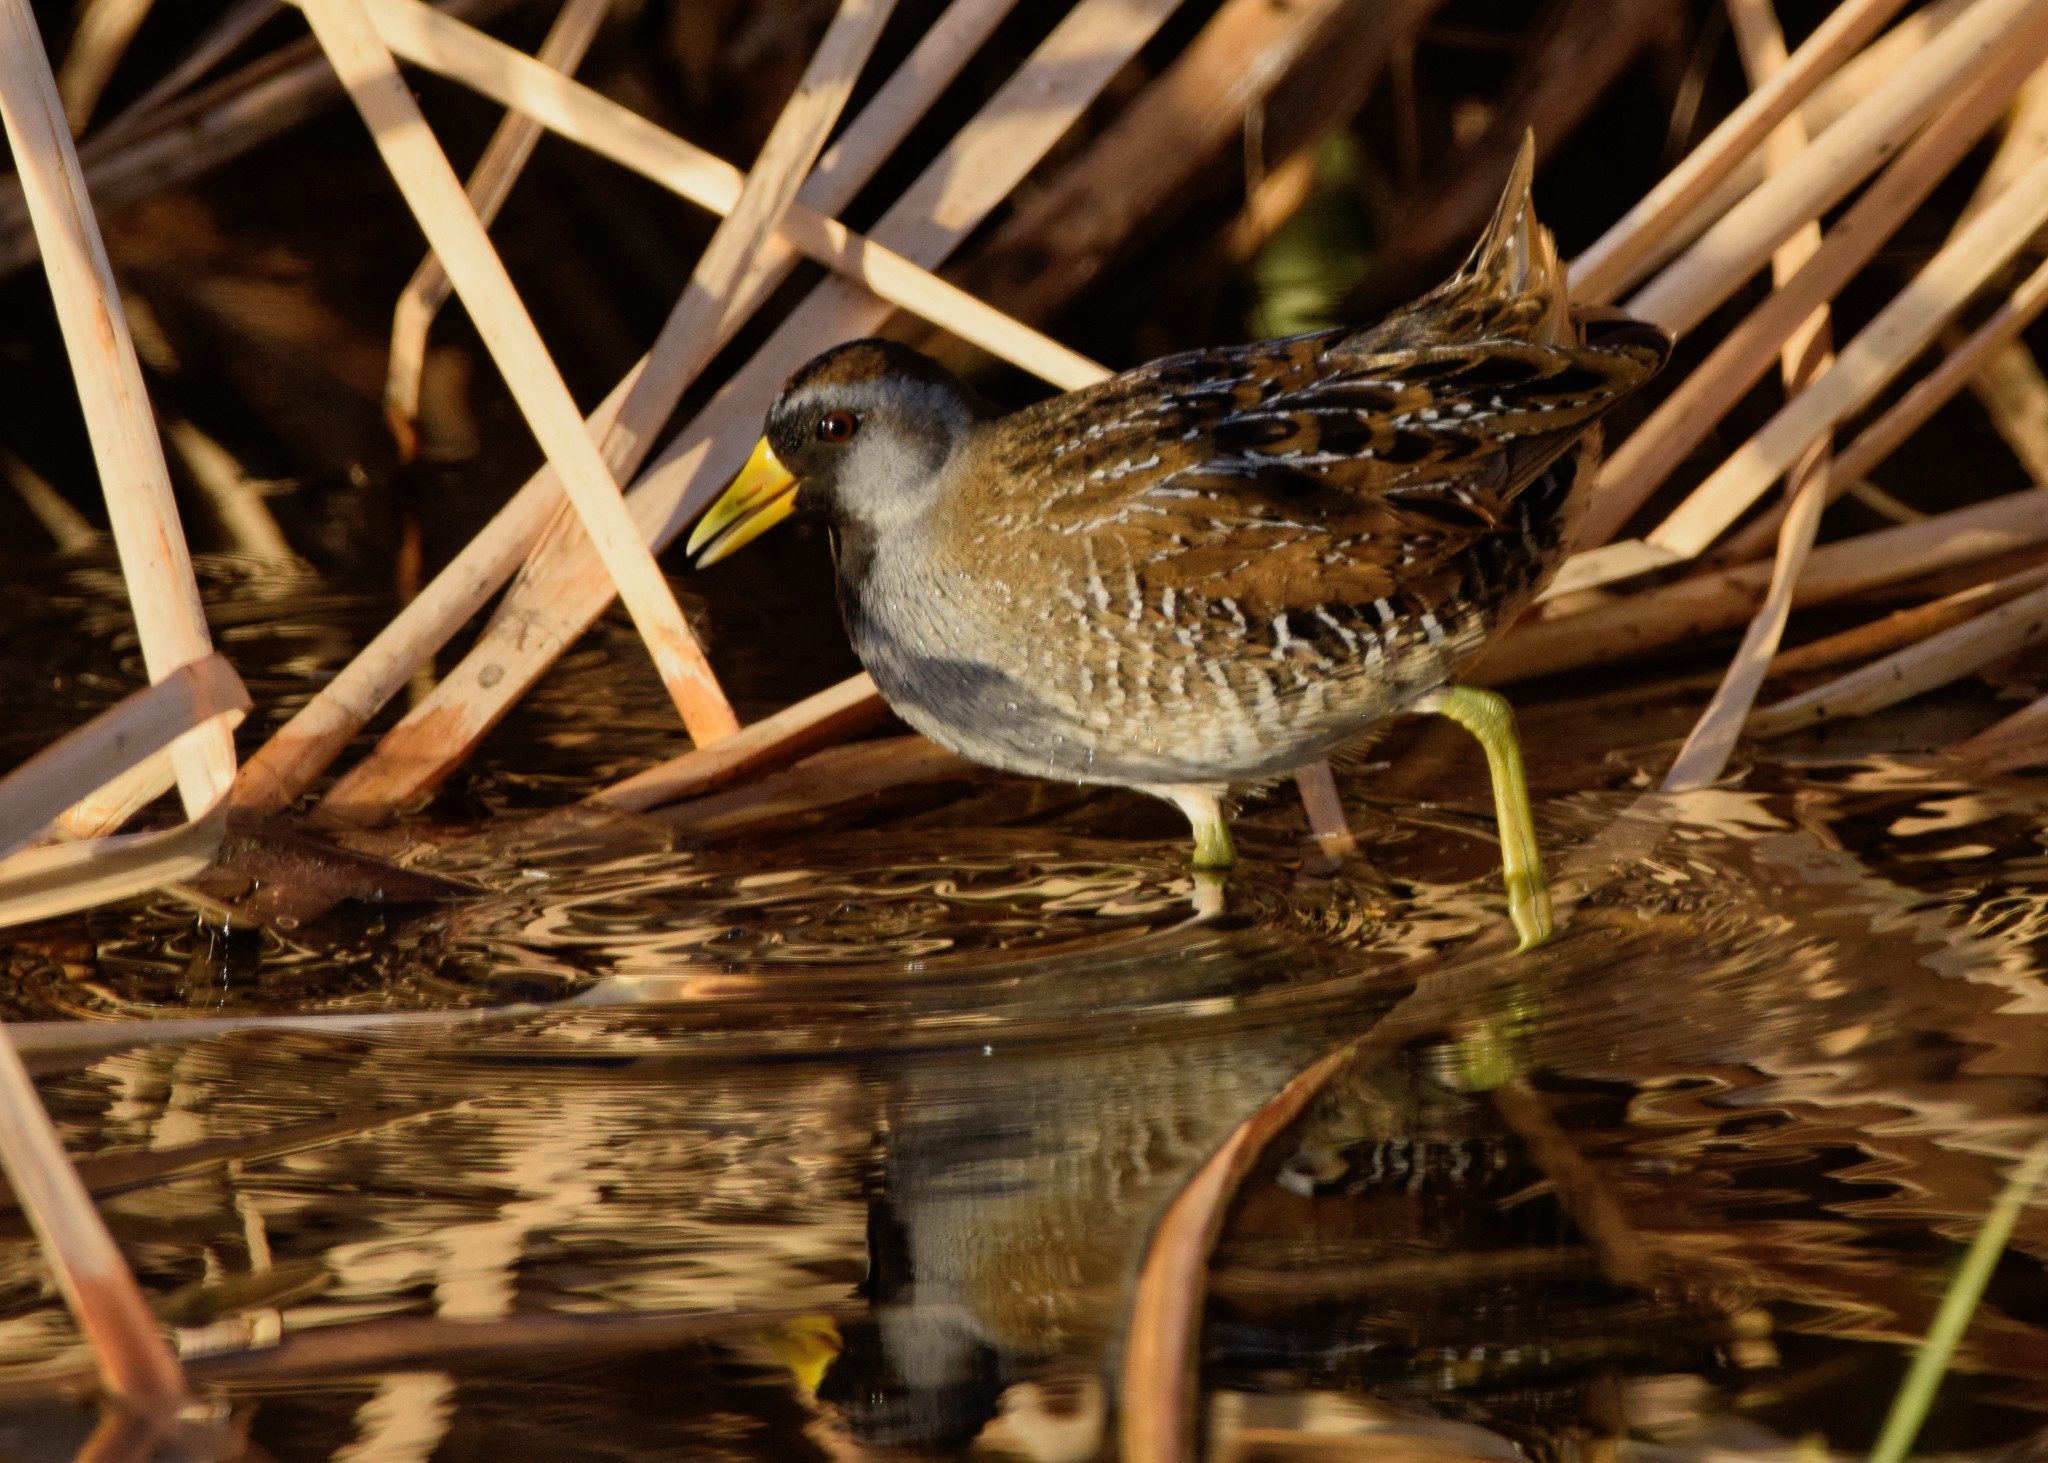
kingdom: Animalia
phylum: Chordata
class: Aves
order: Gruiformes
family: Rallidae
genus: Porzana
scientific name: Porzana carolina
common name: Sora
